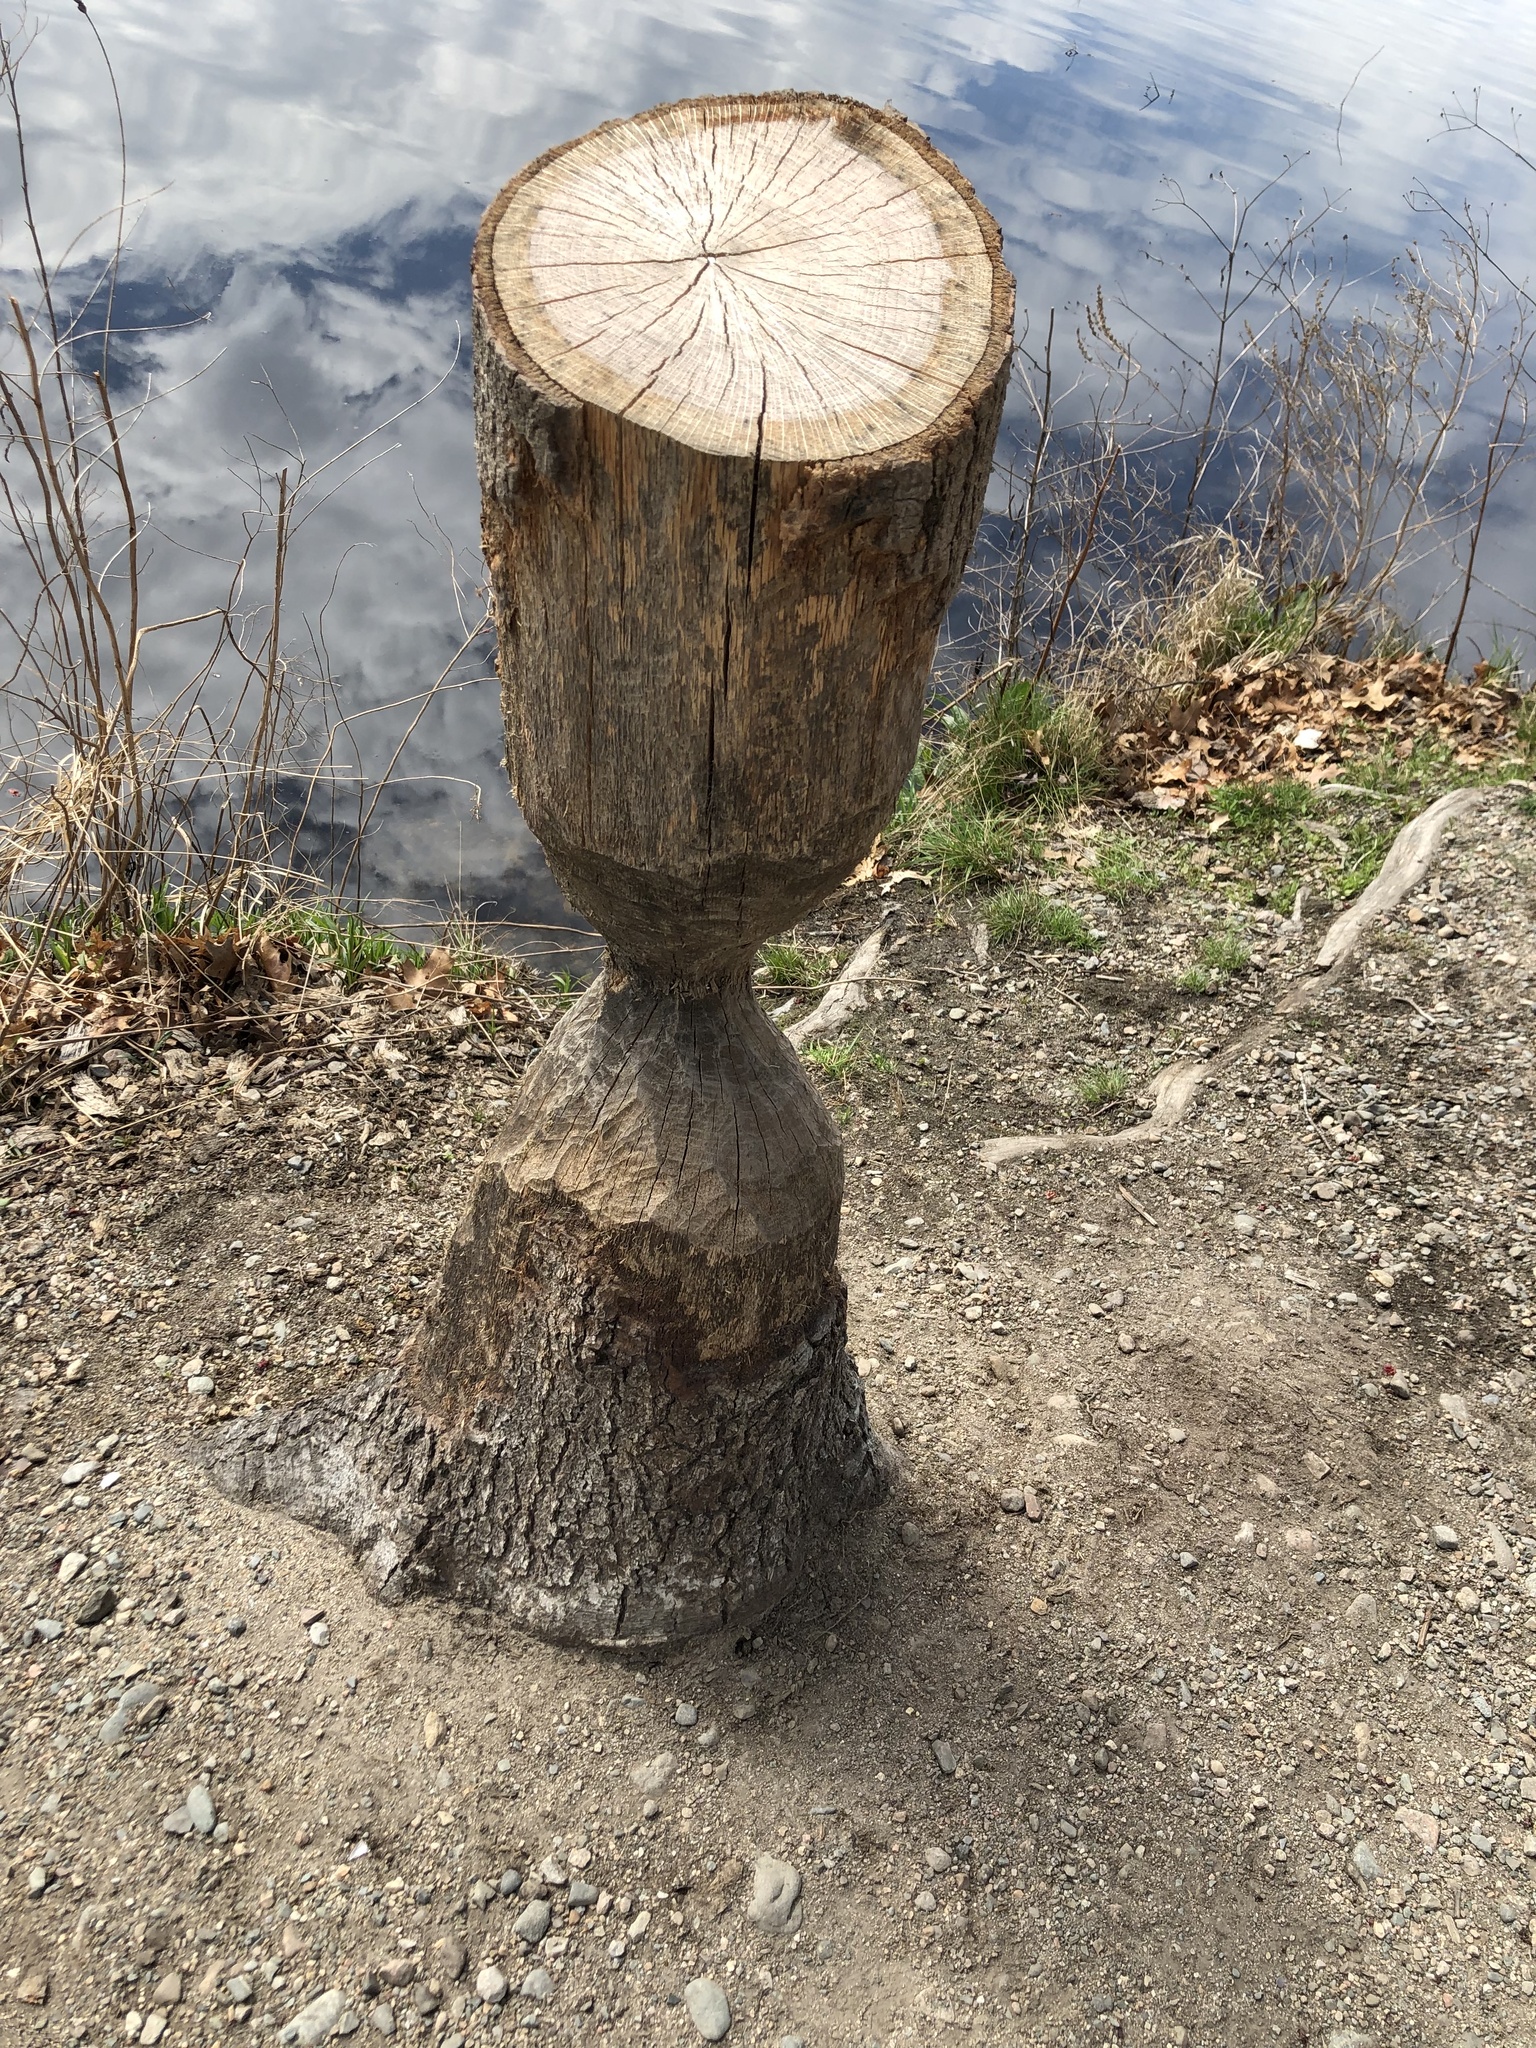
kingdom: Animalia
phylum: Chordata
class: Mammalia
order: Rodentia
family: Castoridae
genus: Castor
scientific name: Castor canadensis
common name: American beaver
